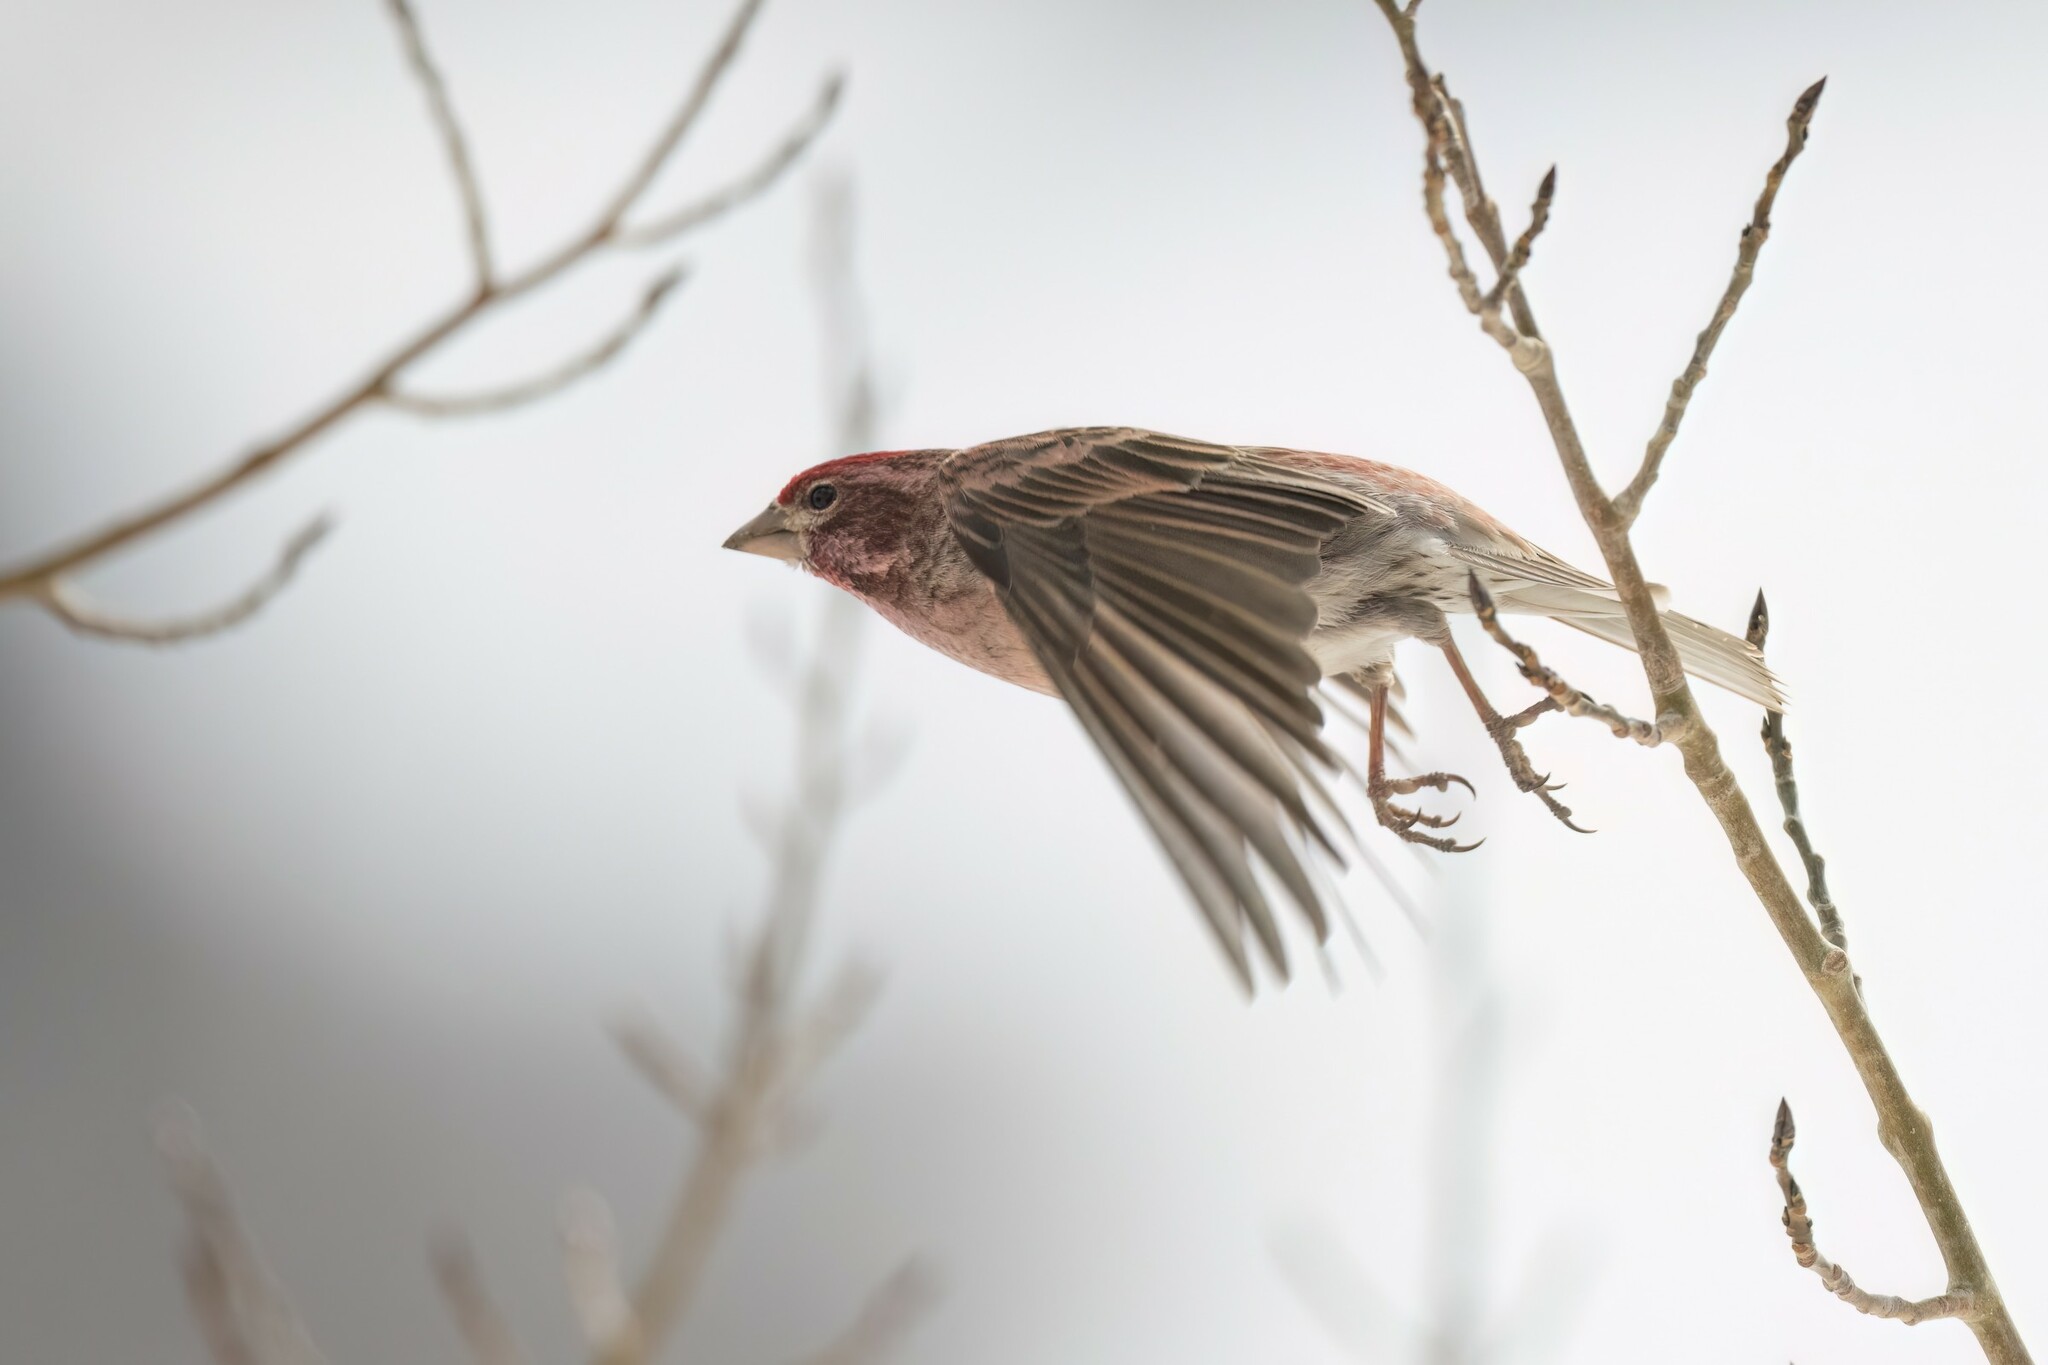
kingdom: Animalia
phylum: Chordata
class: Aves
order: Passeriformes
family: Fringillidae
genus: Haemorhous
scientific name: Haemorhous cassinii
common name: Cassin's finch
